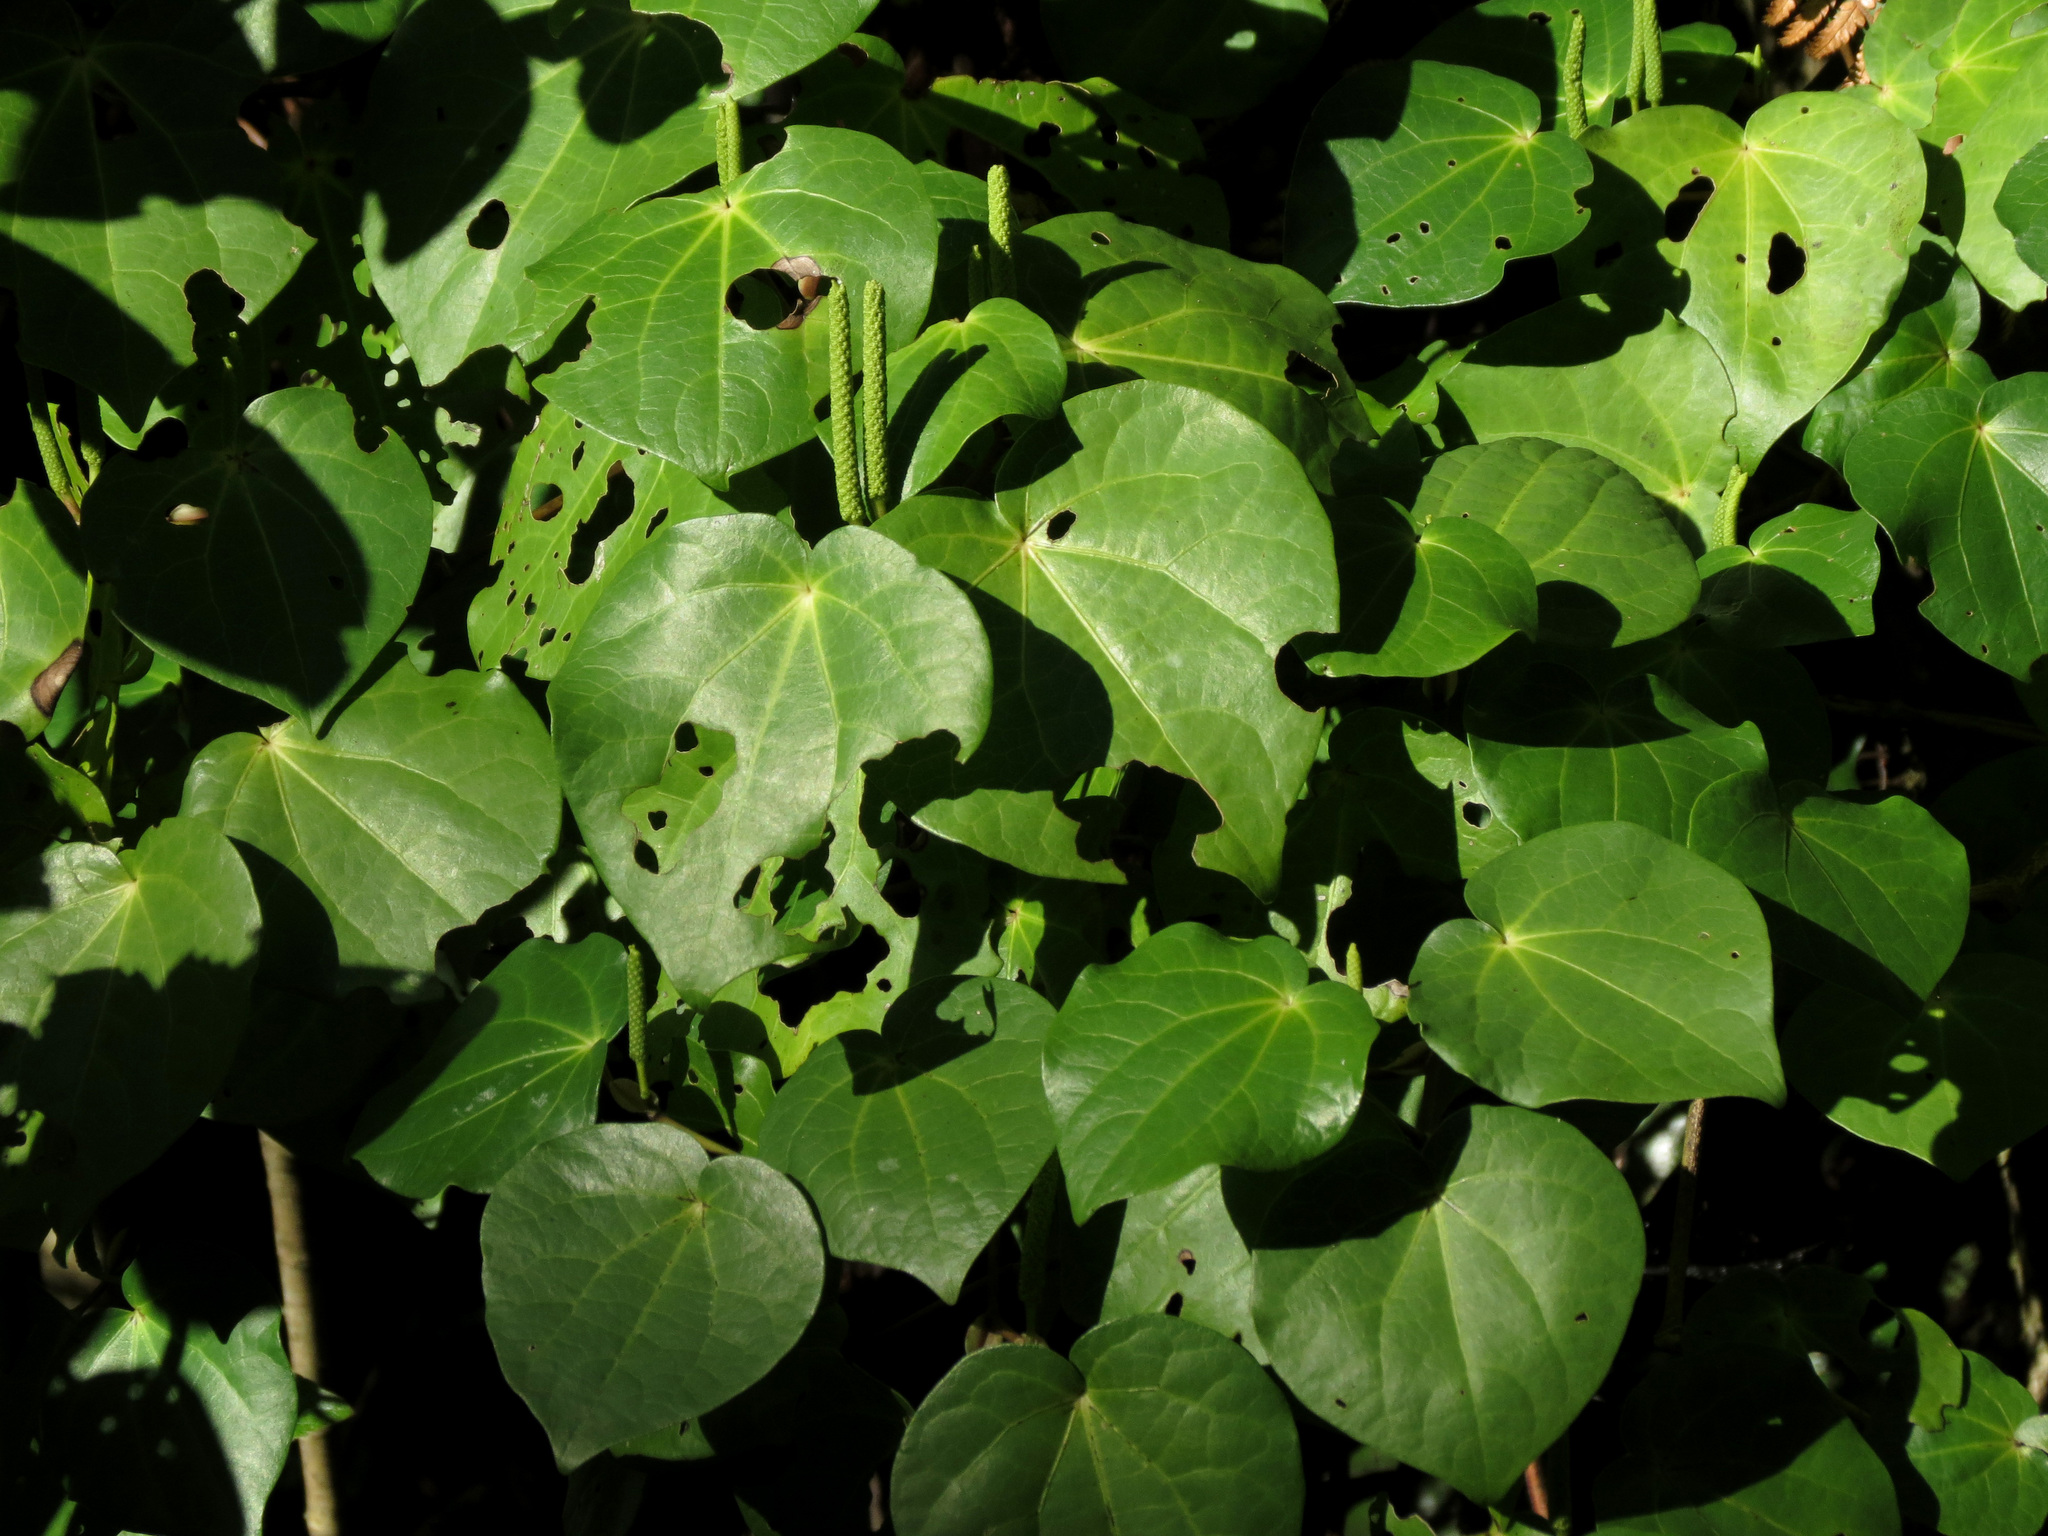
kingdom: Plantae
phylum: Tracheophyta
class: Magnoliopsida
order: Piperales
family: Piperaceae
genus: Macropiper
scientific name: Macropiper excelsum
